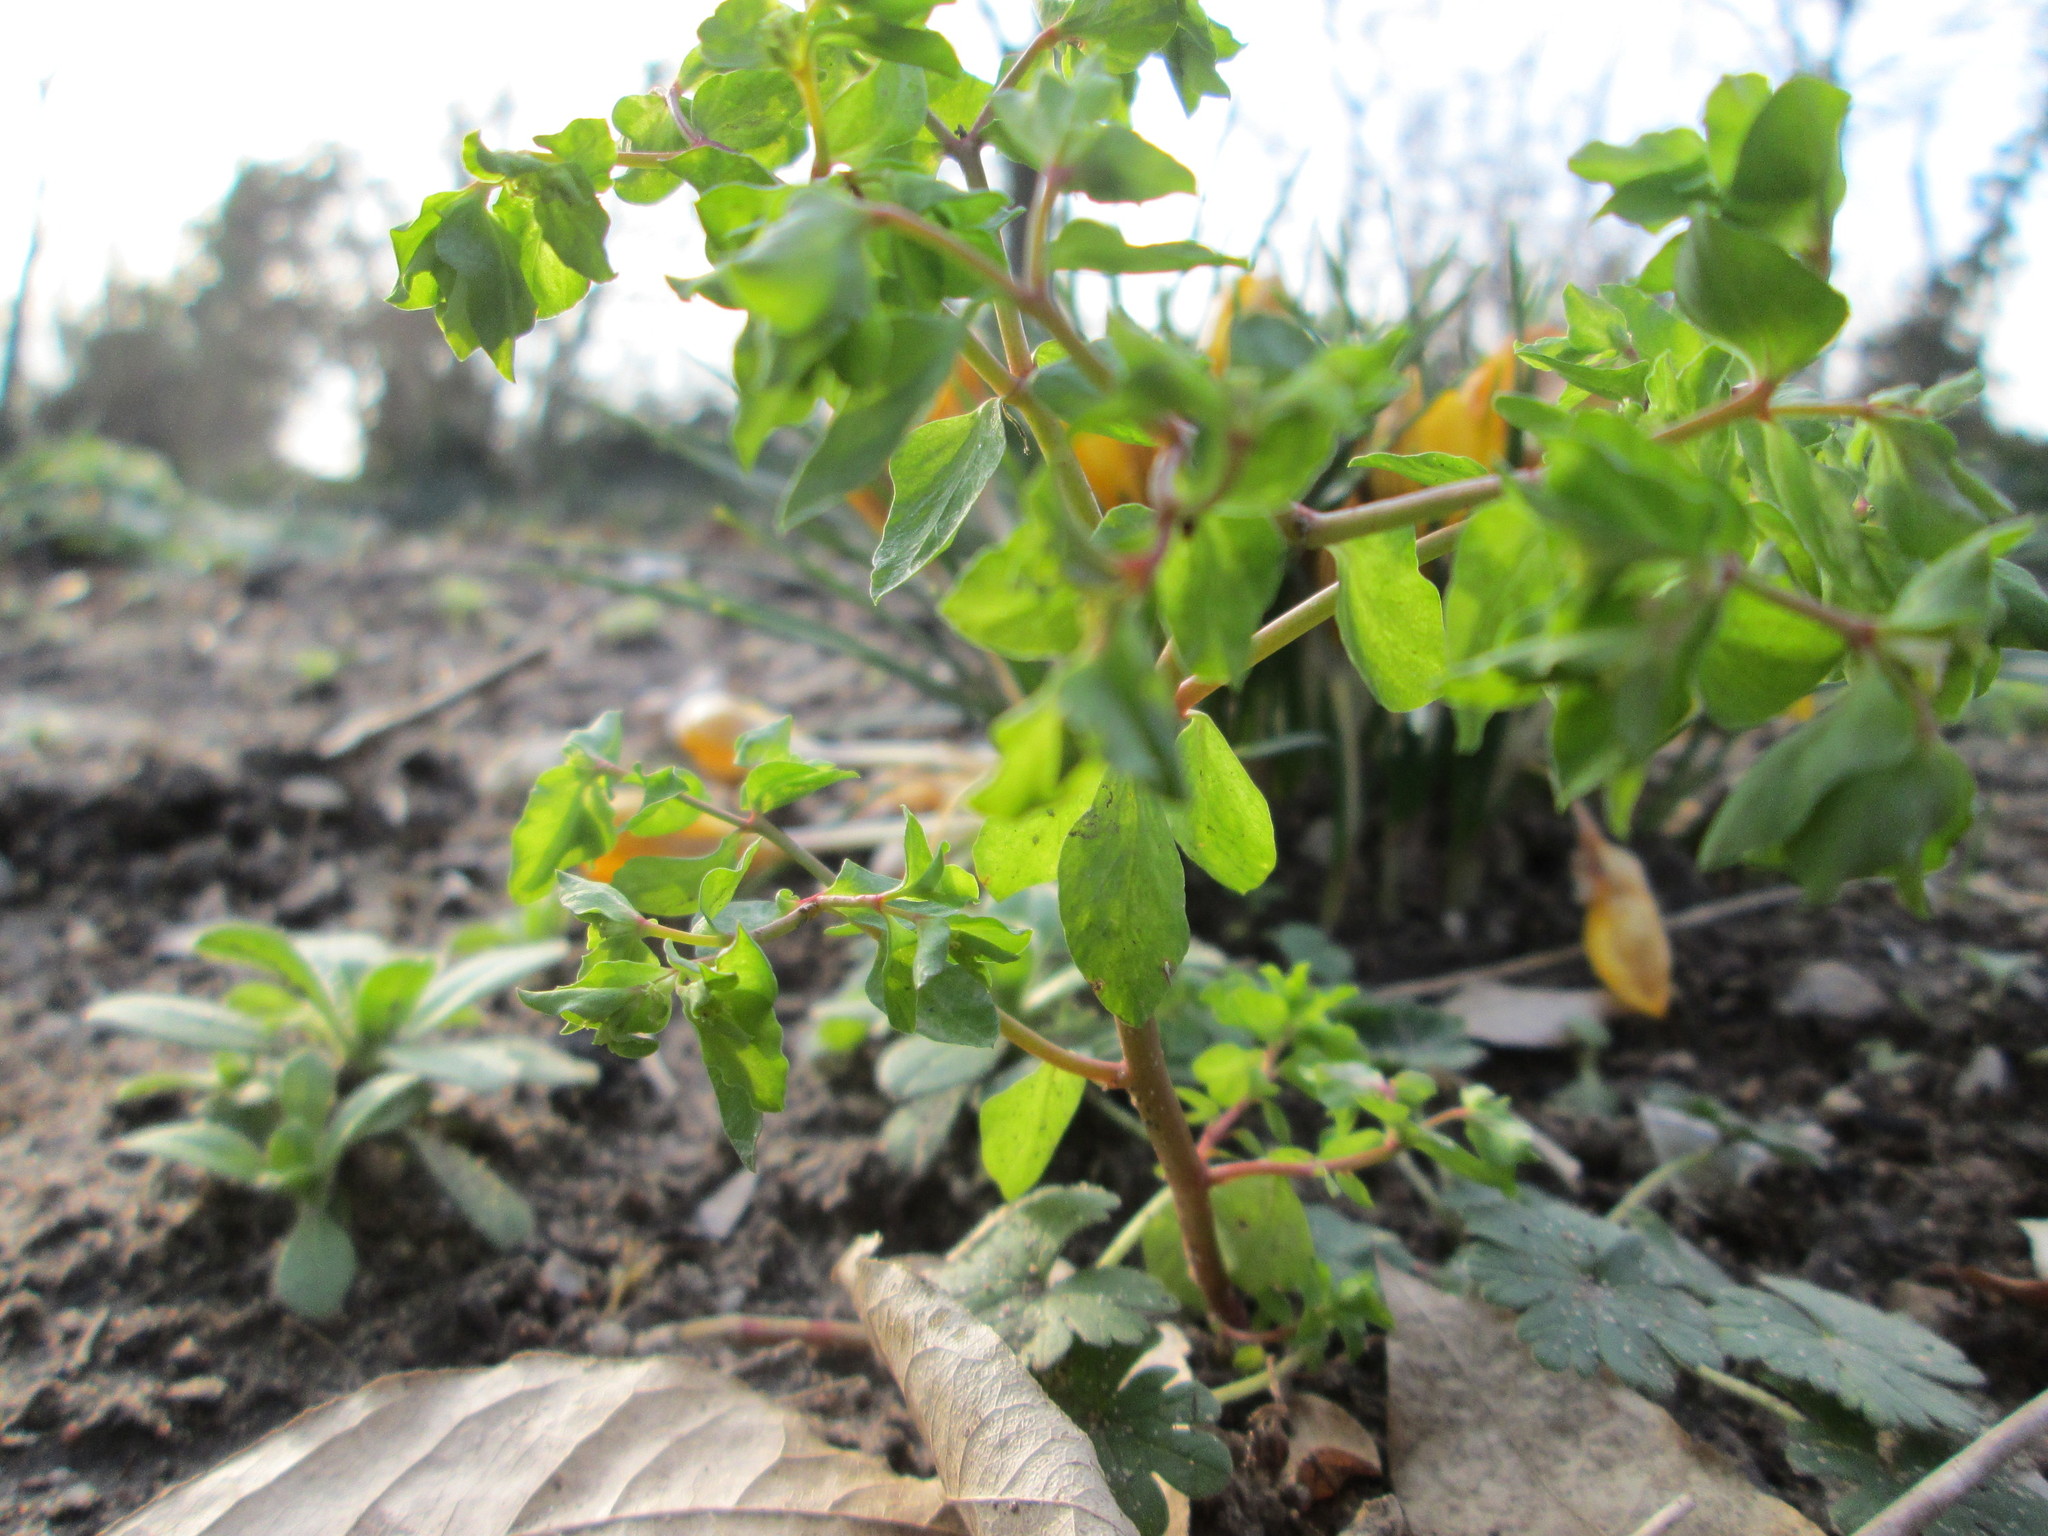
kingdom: Plantae
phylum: Tracheophyta
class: Magnoliopsida
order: Malpighiales
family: Euphorbiaceae
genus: Euphorbia
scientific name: Euphorbia peplus
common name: Petty spurge
